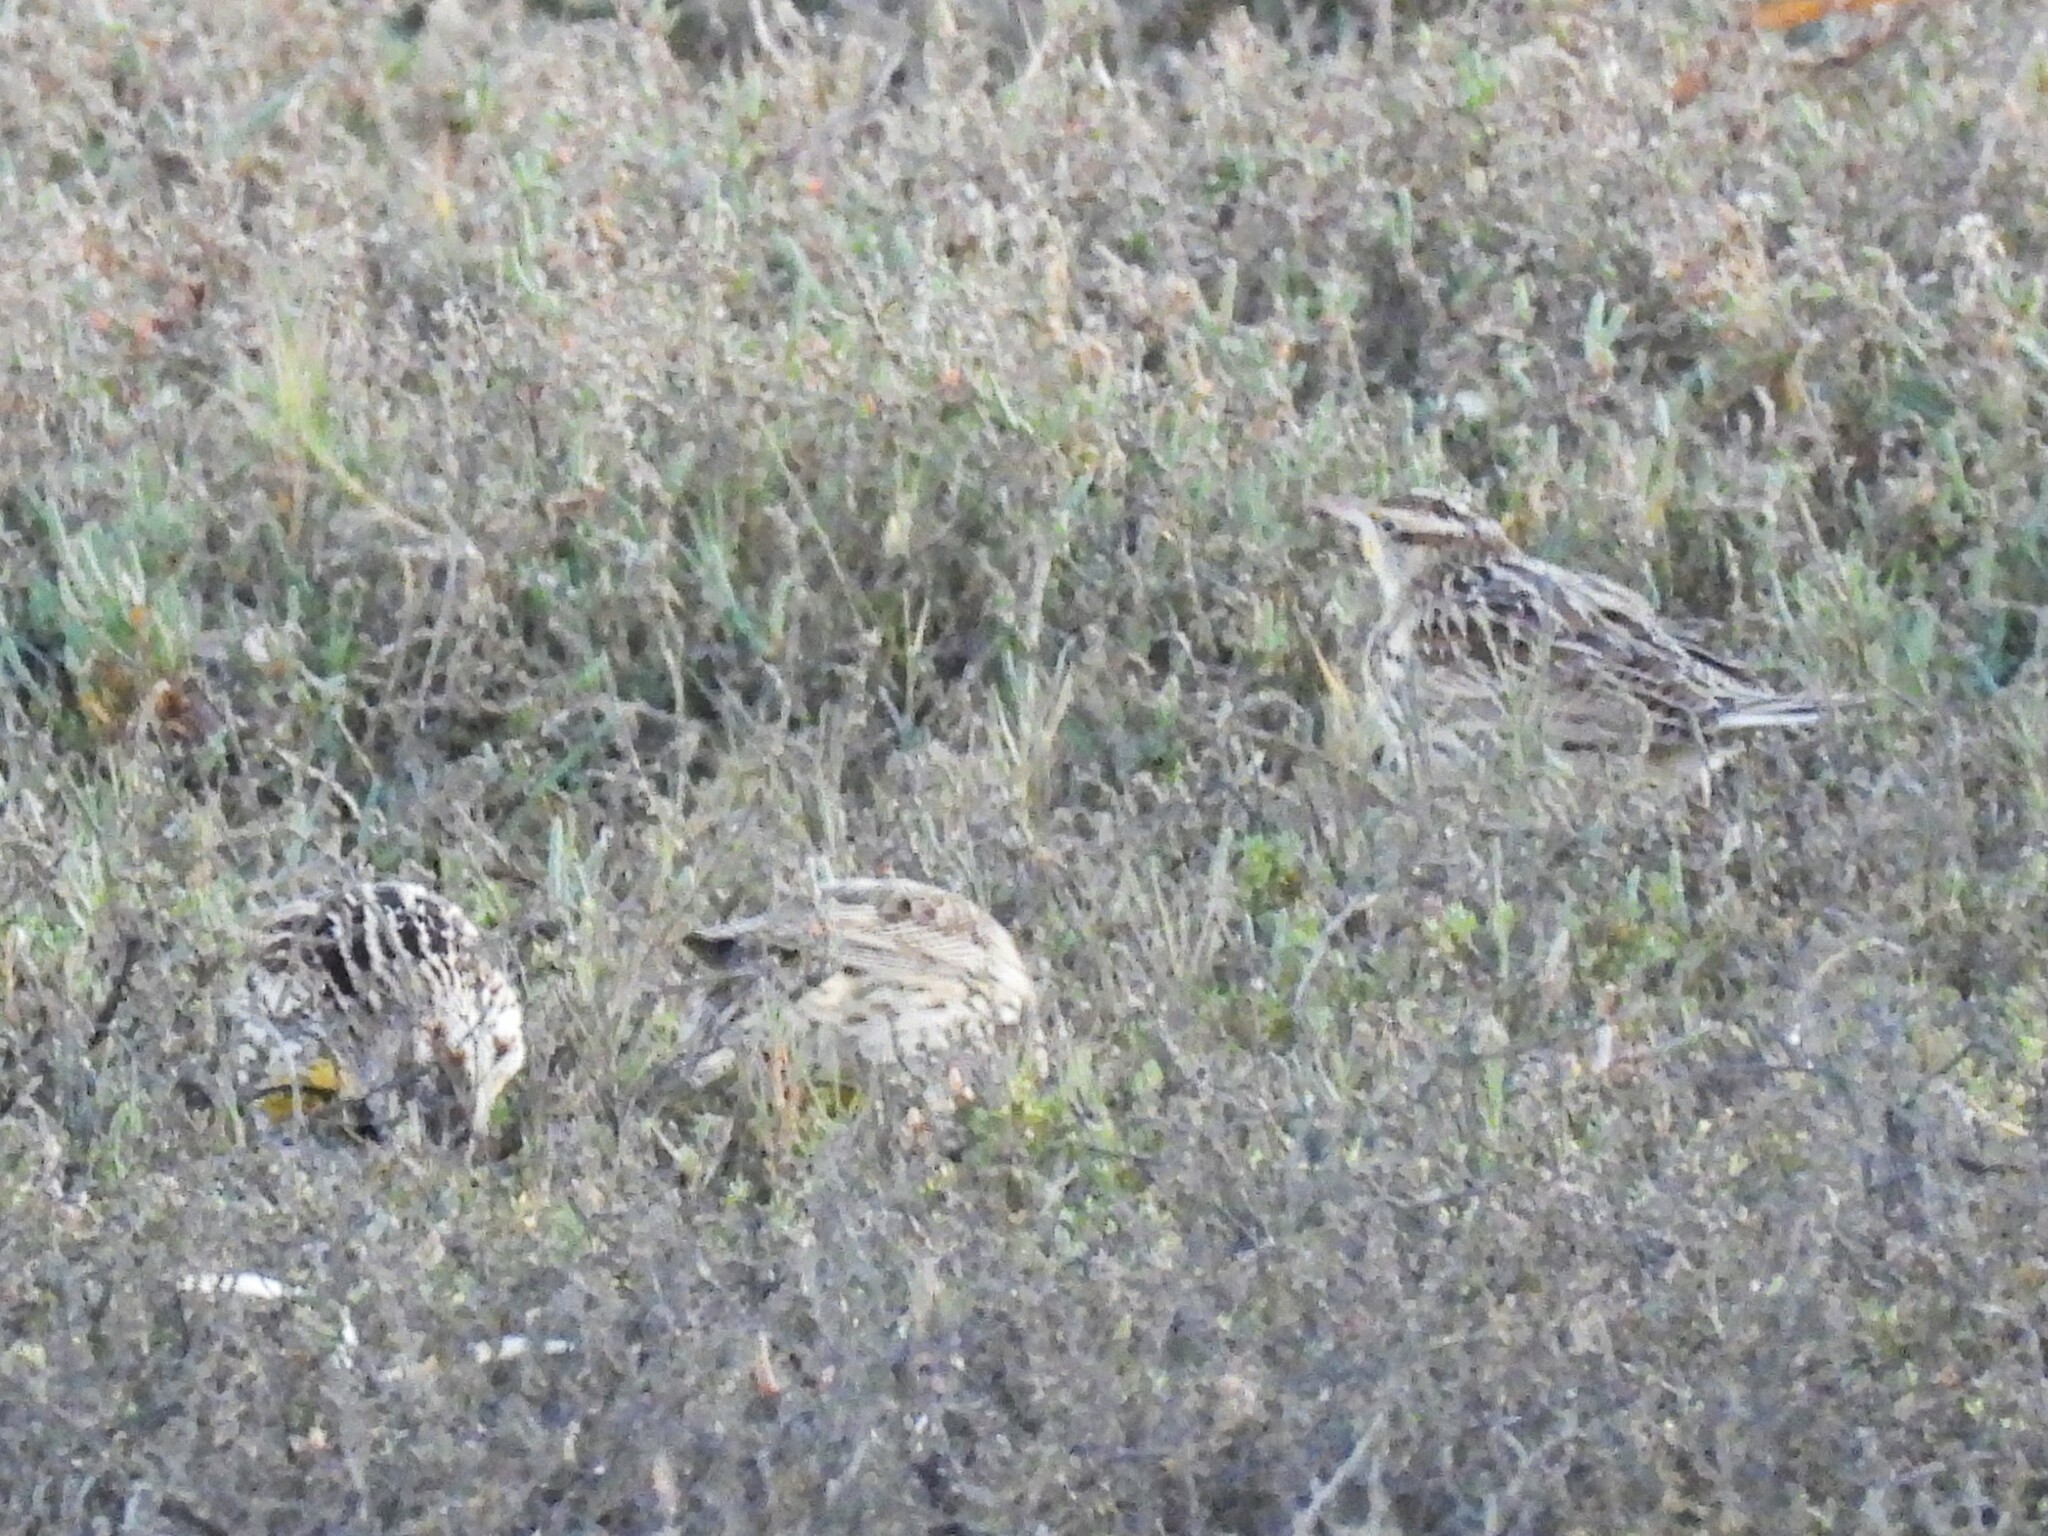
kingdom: Animalia
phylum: Chordata
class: Aves
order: Passeriformes
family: Icteridae
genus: Sturnella
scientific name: Sturnella neglecta
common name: Western meadowlark
